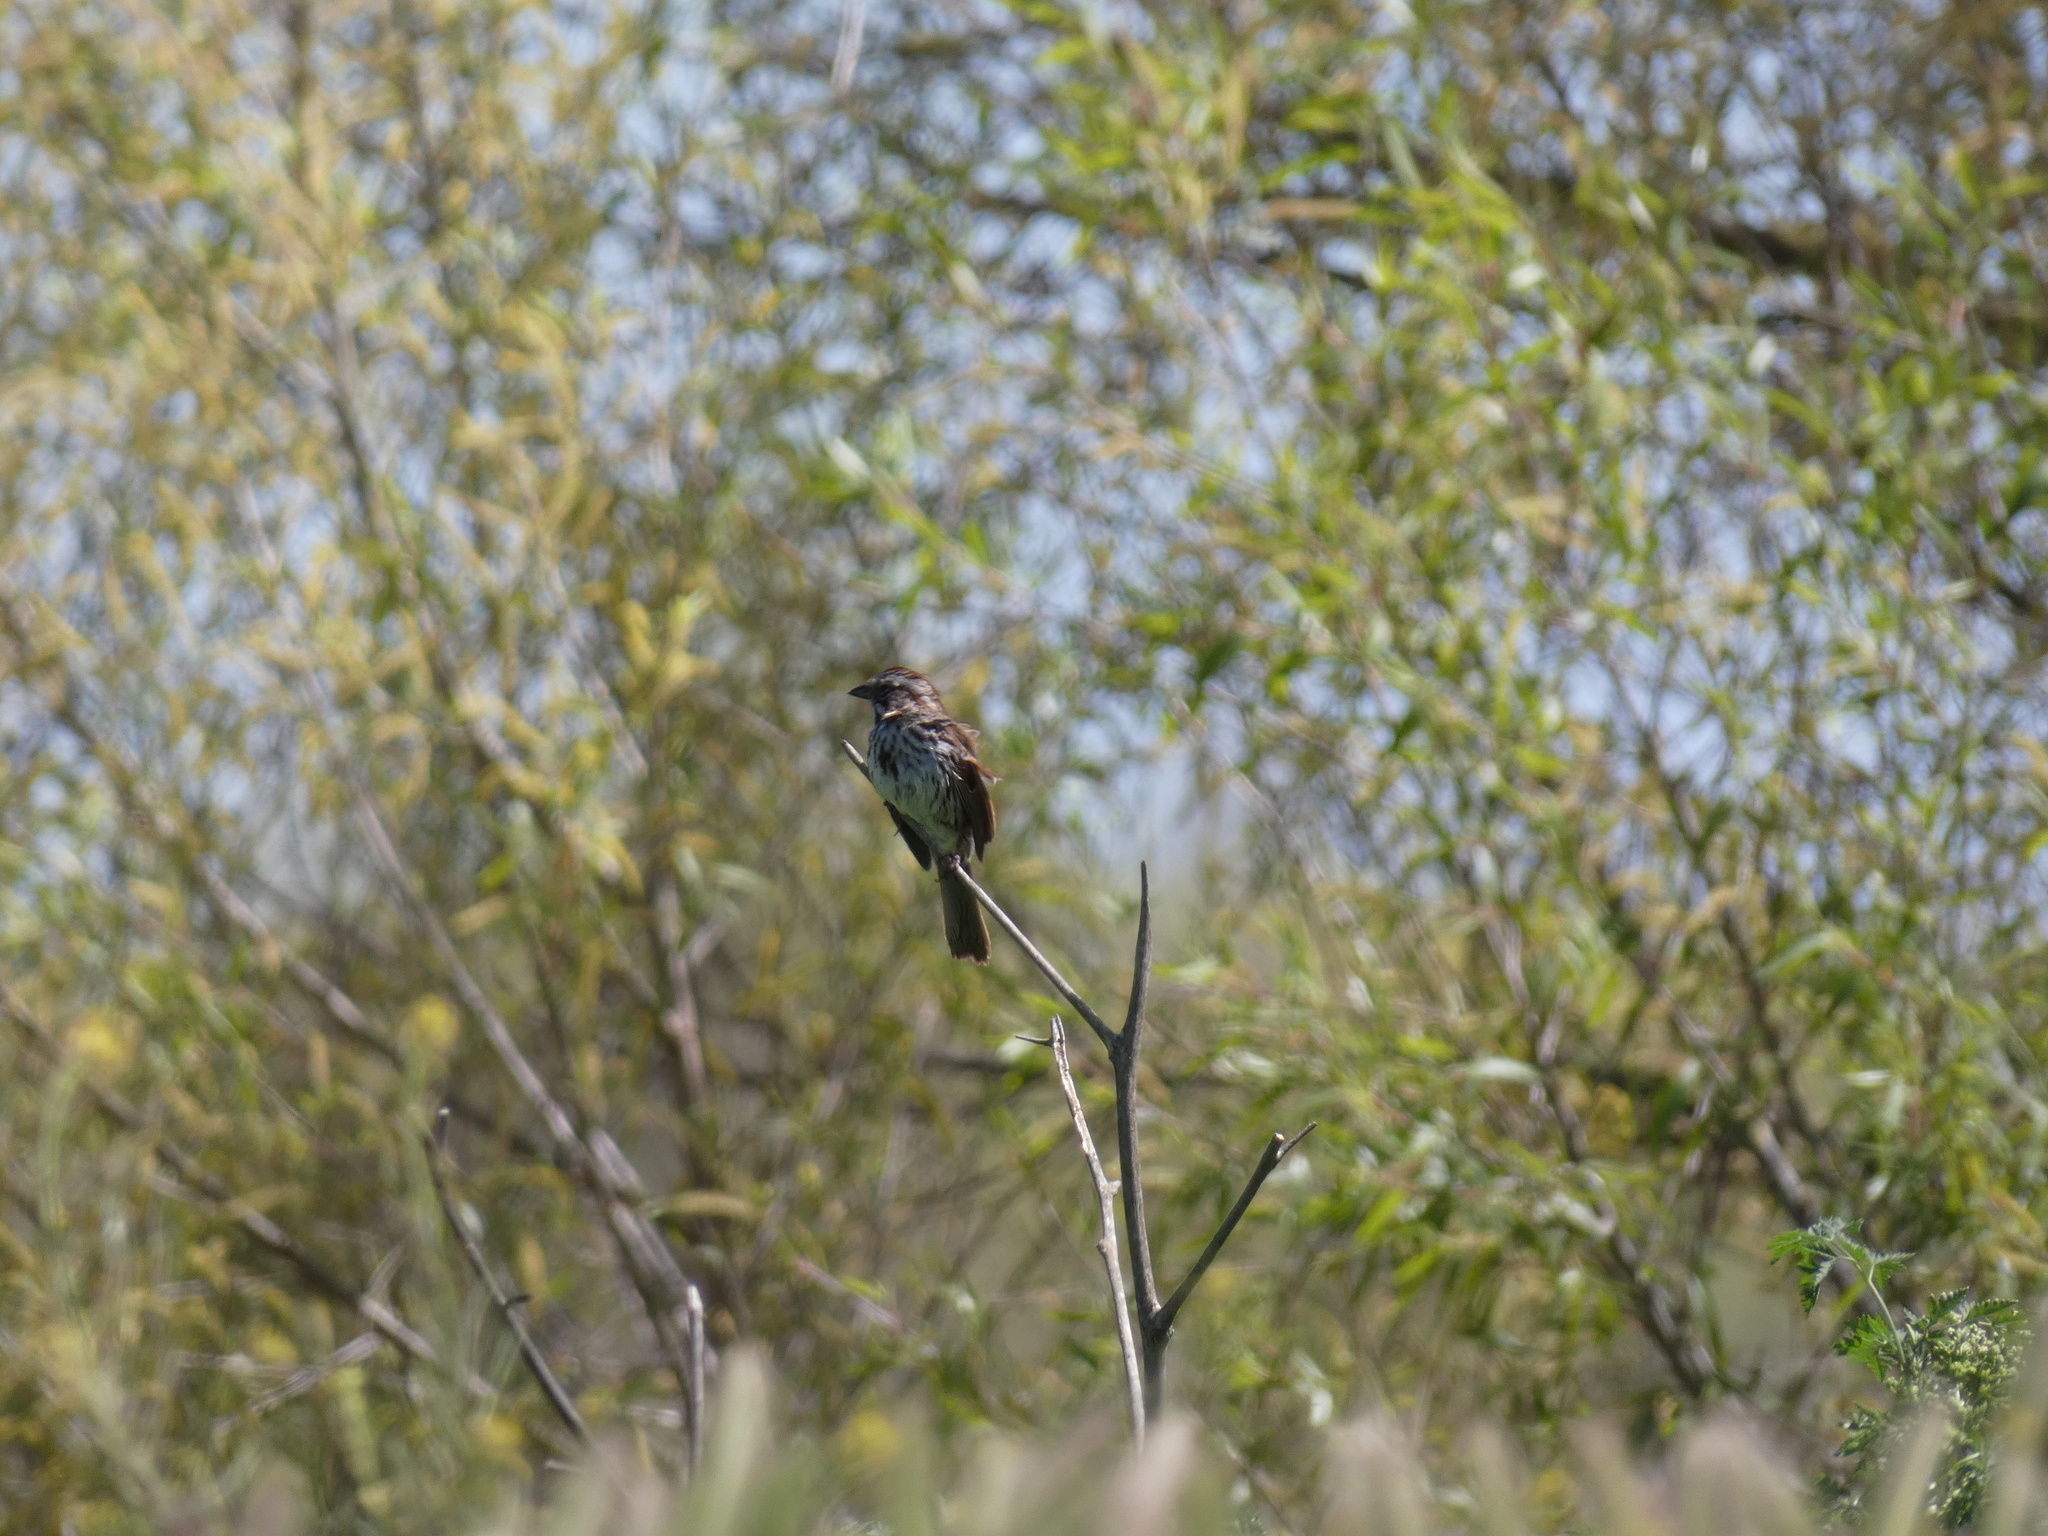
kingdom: Animalia
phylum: Chordata
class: Aves
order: Passeriformes
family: Passerellidae
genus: Melospiza
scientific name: Melospiza melodia
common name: Song sparrow
